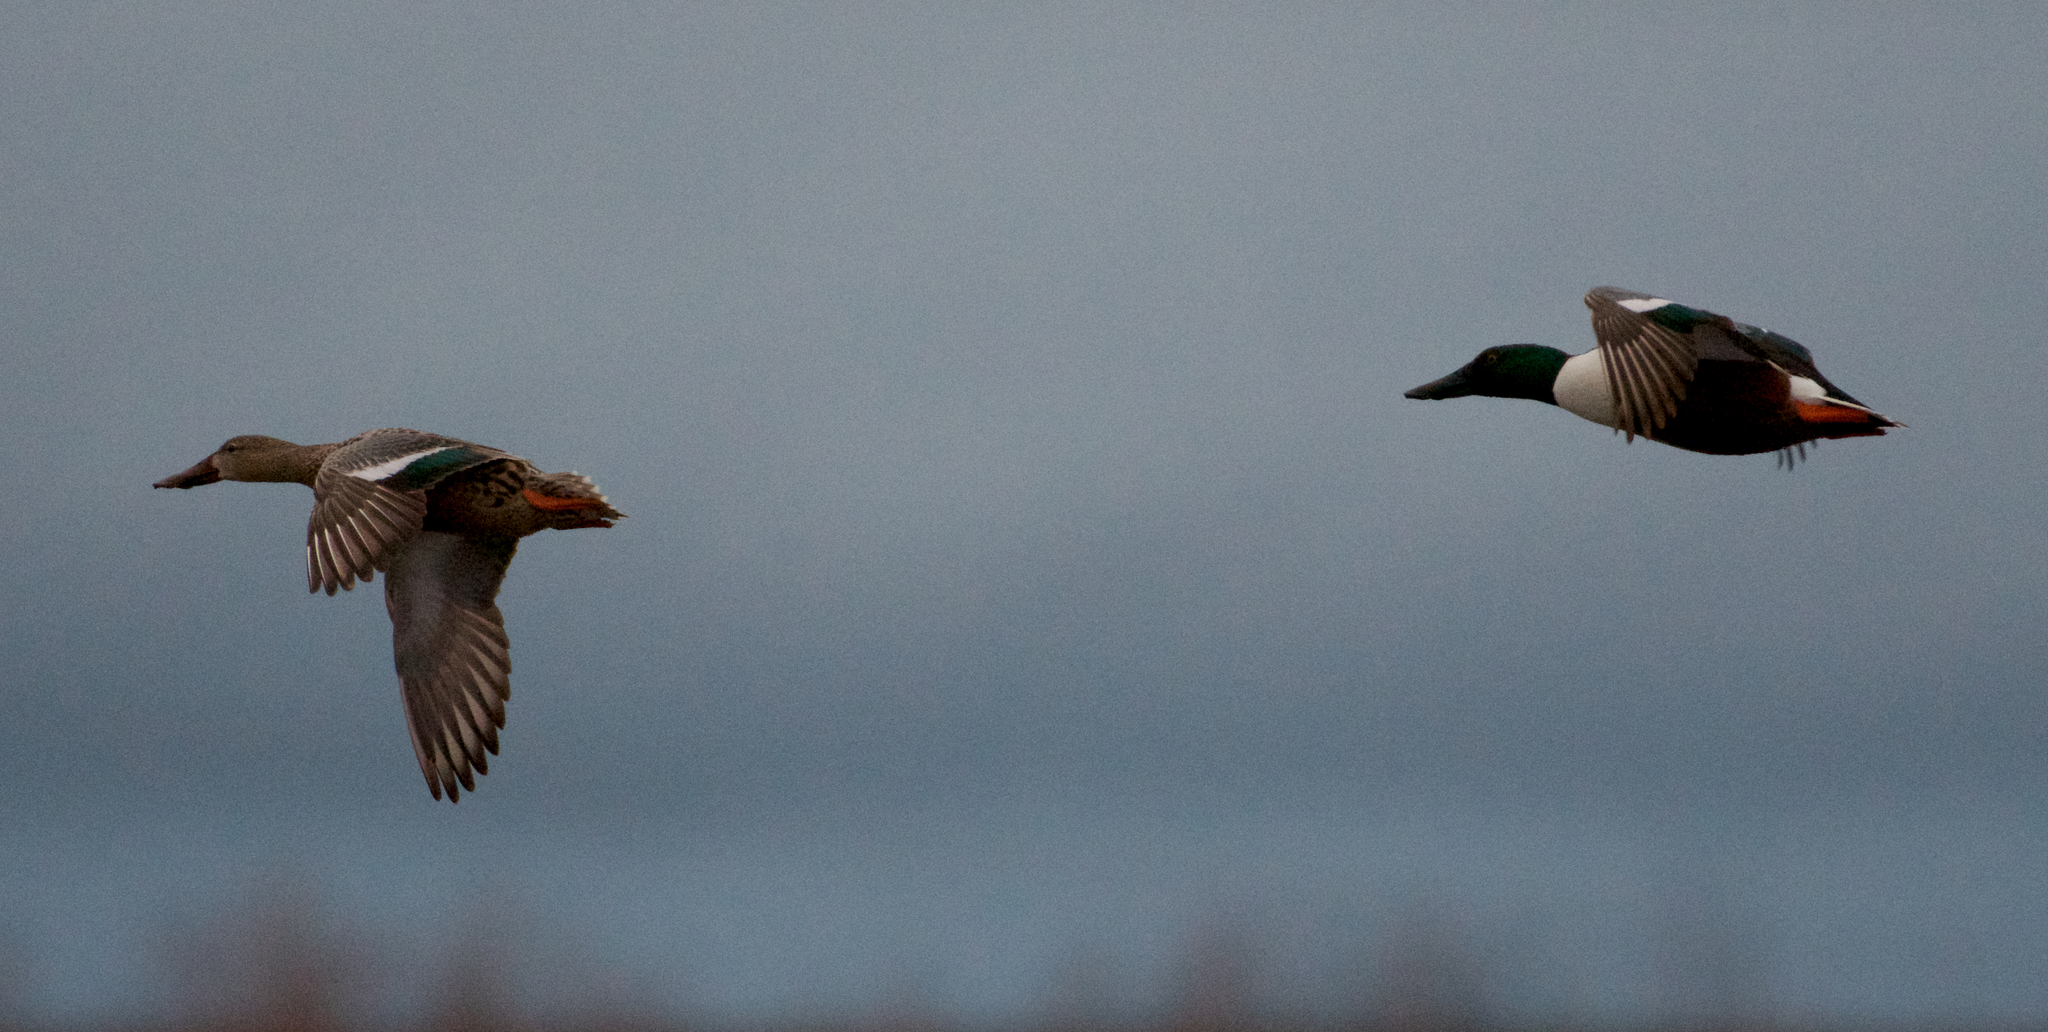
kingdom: Animalia
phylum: Chordata
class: Aves
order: Anseriformes
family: Anatidae
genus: Spatula
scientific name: Spatula clypeata
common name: Northern shoveler
